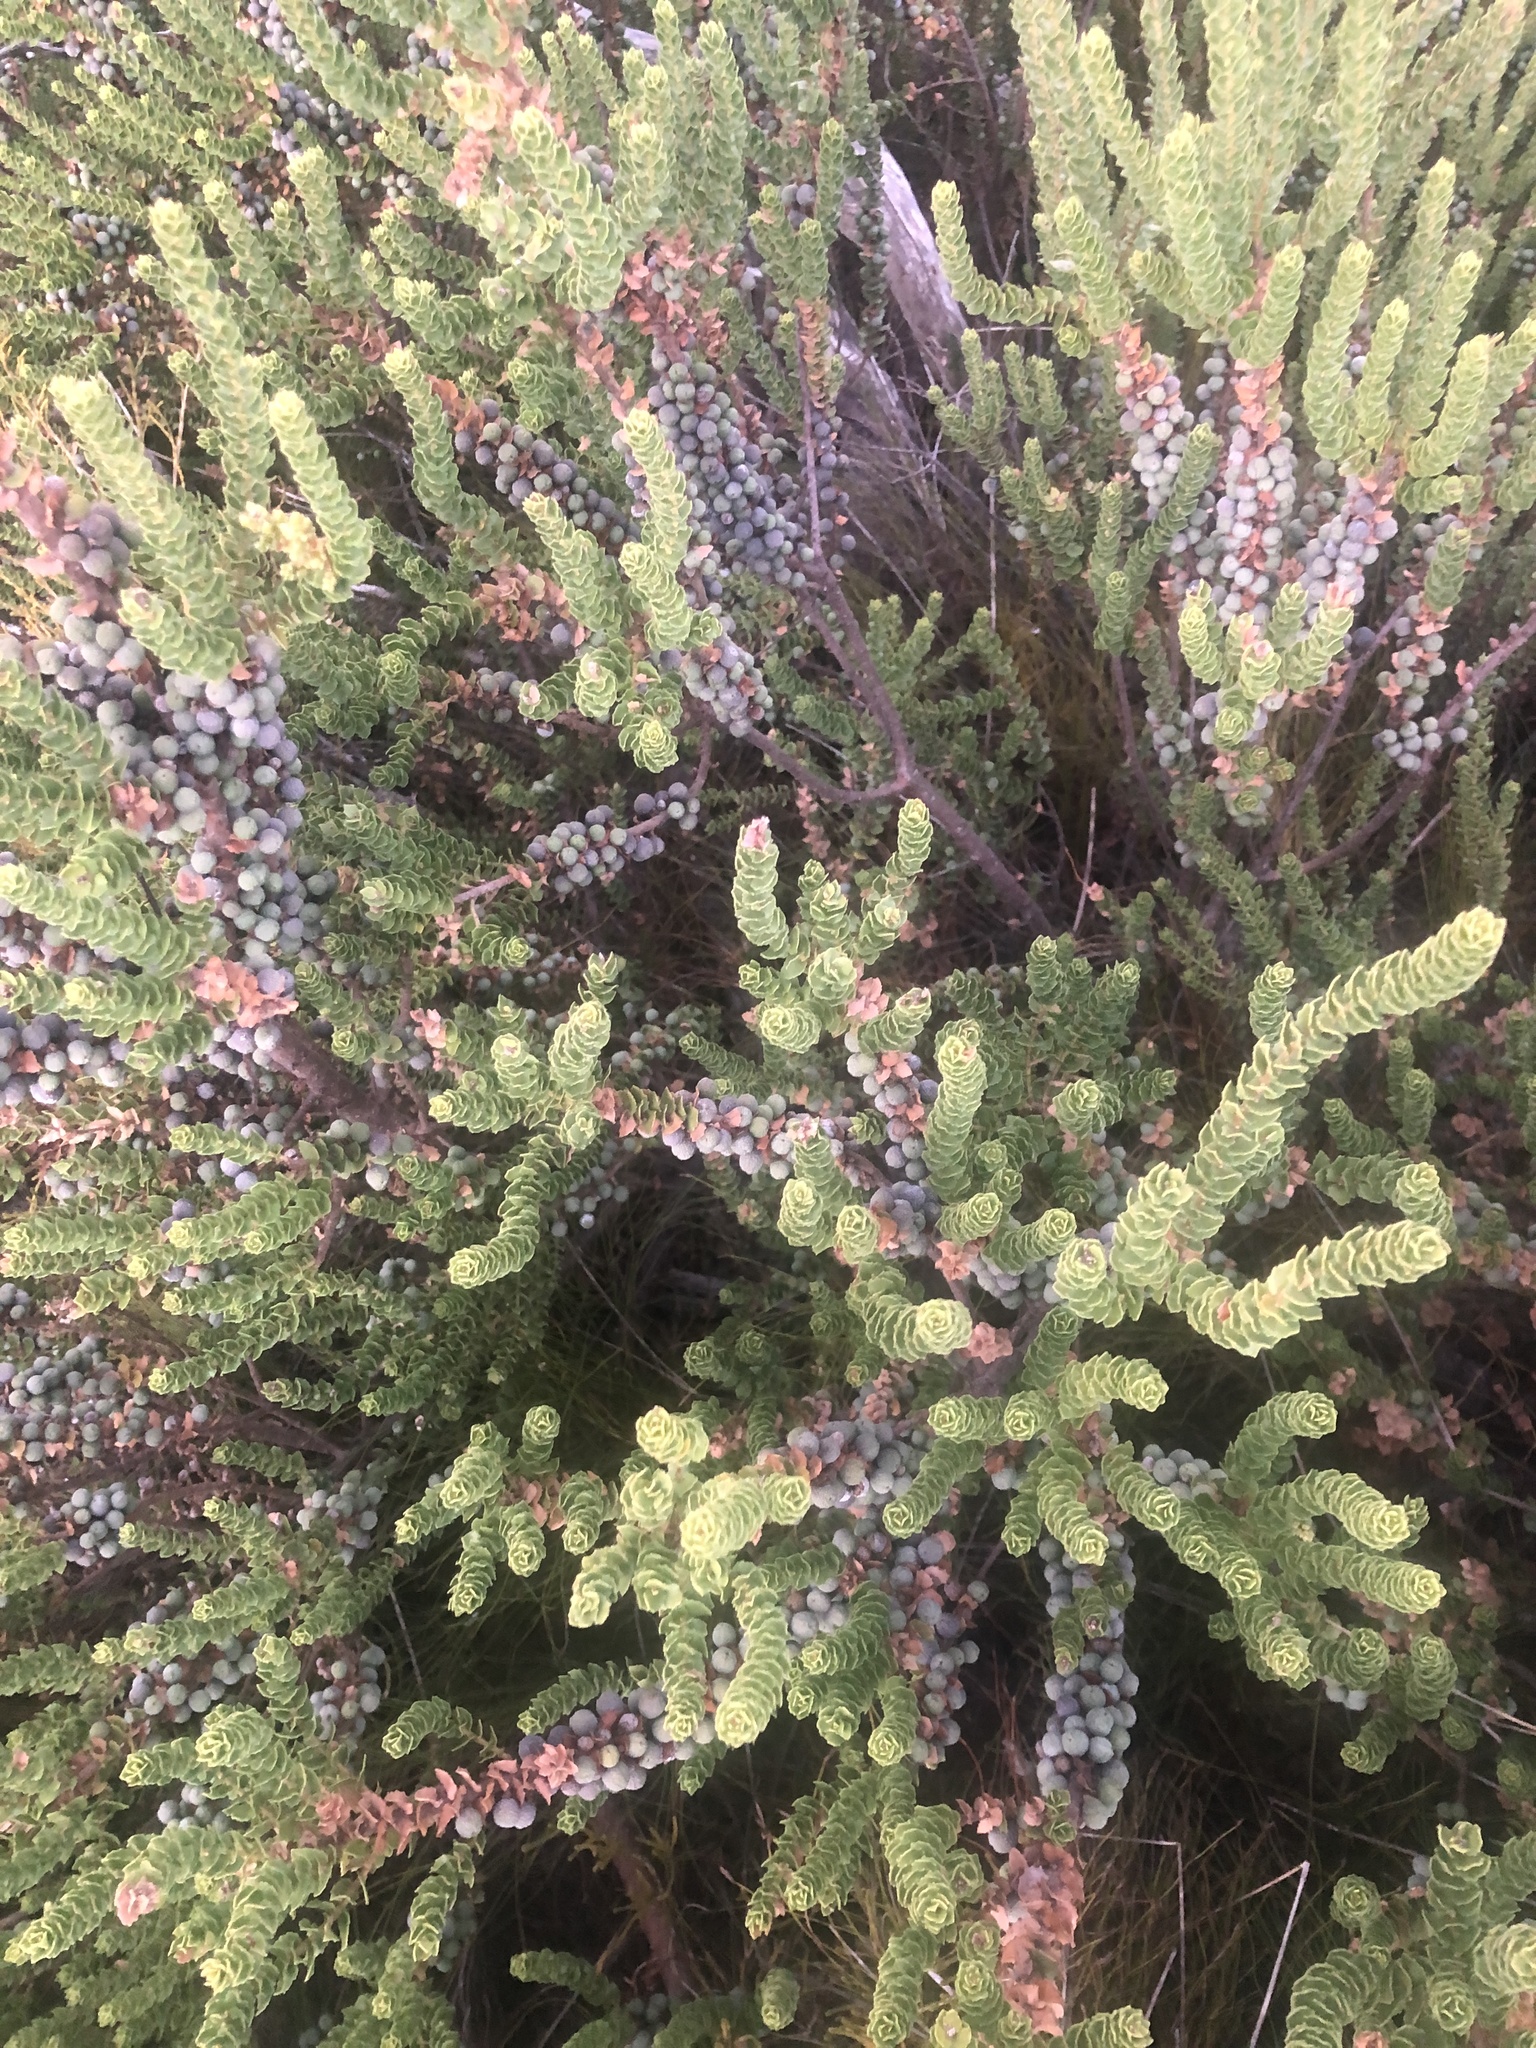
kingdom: Plantae
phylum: Tracheophyta
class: Magnoliopsida
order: Fagales
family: Myricaceae
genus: Morella
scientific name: Morella cordifolia
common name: Waxberry
